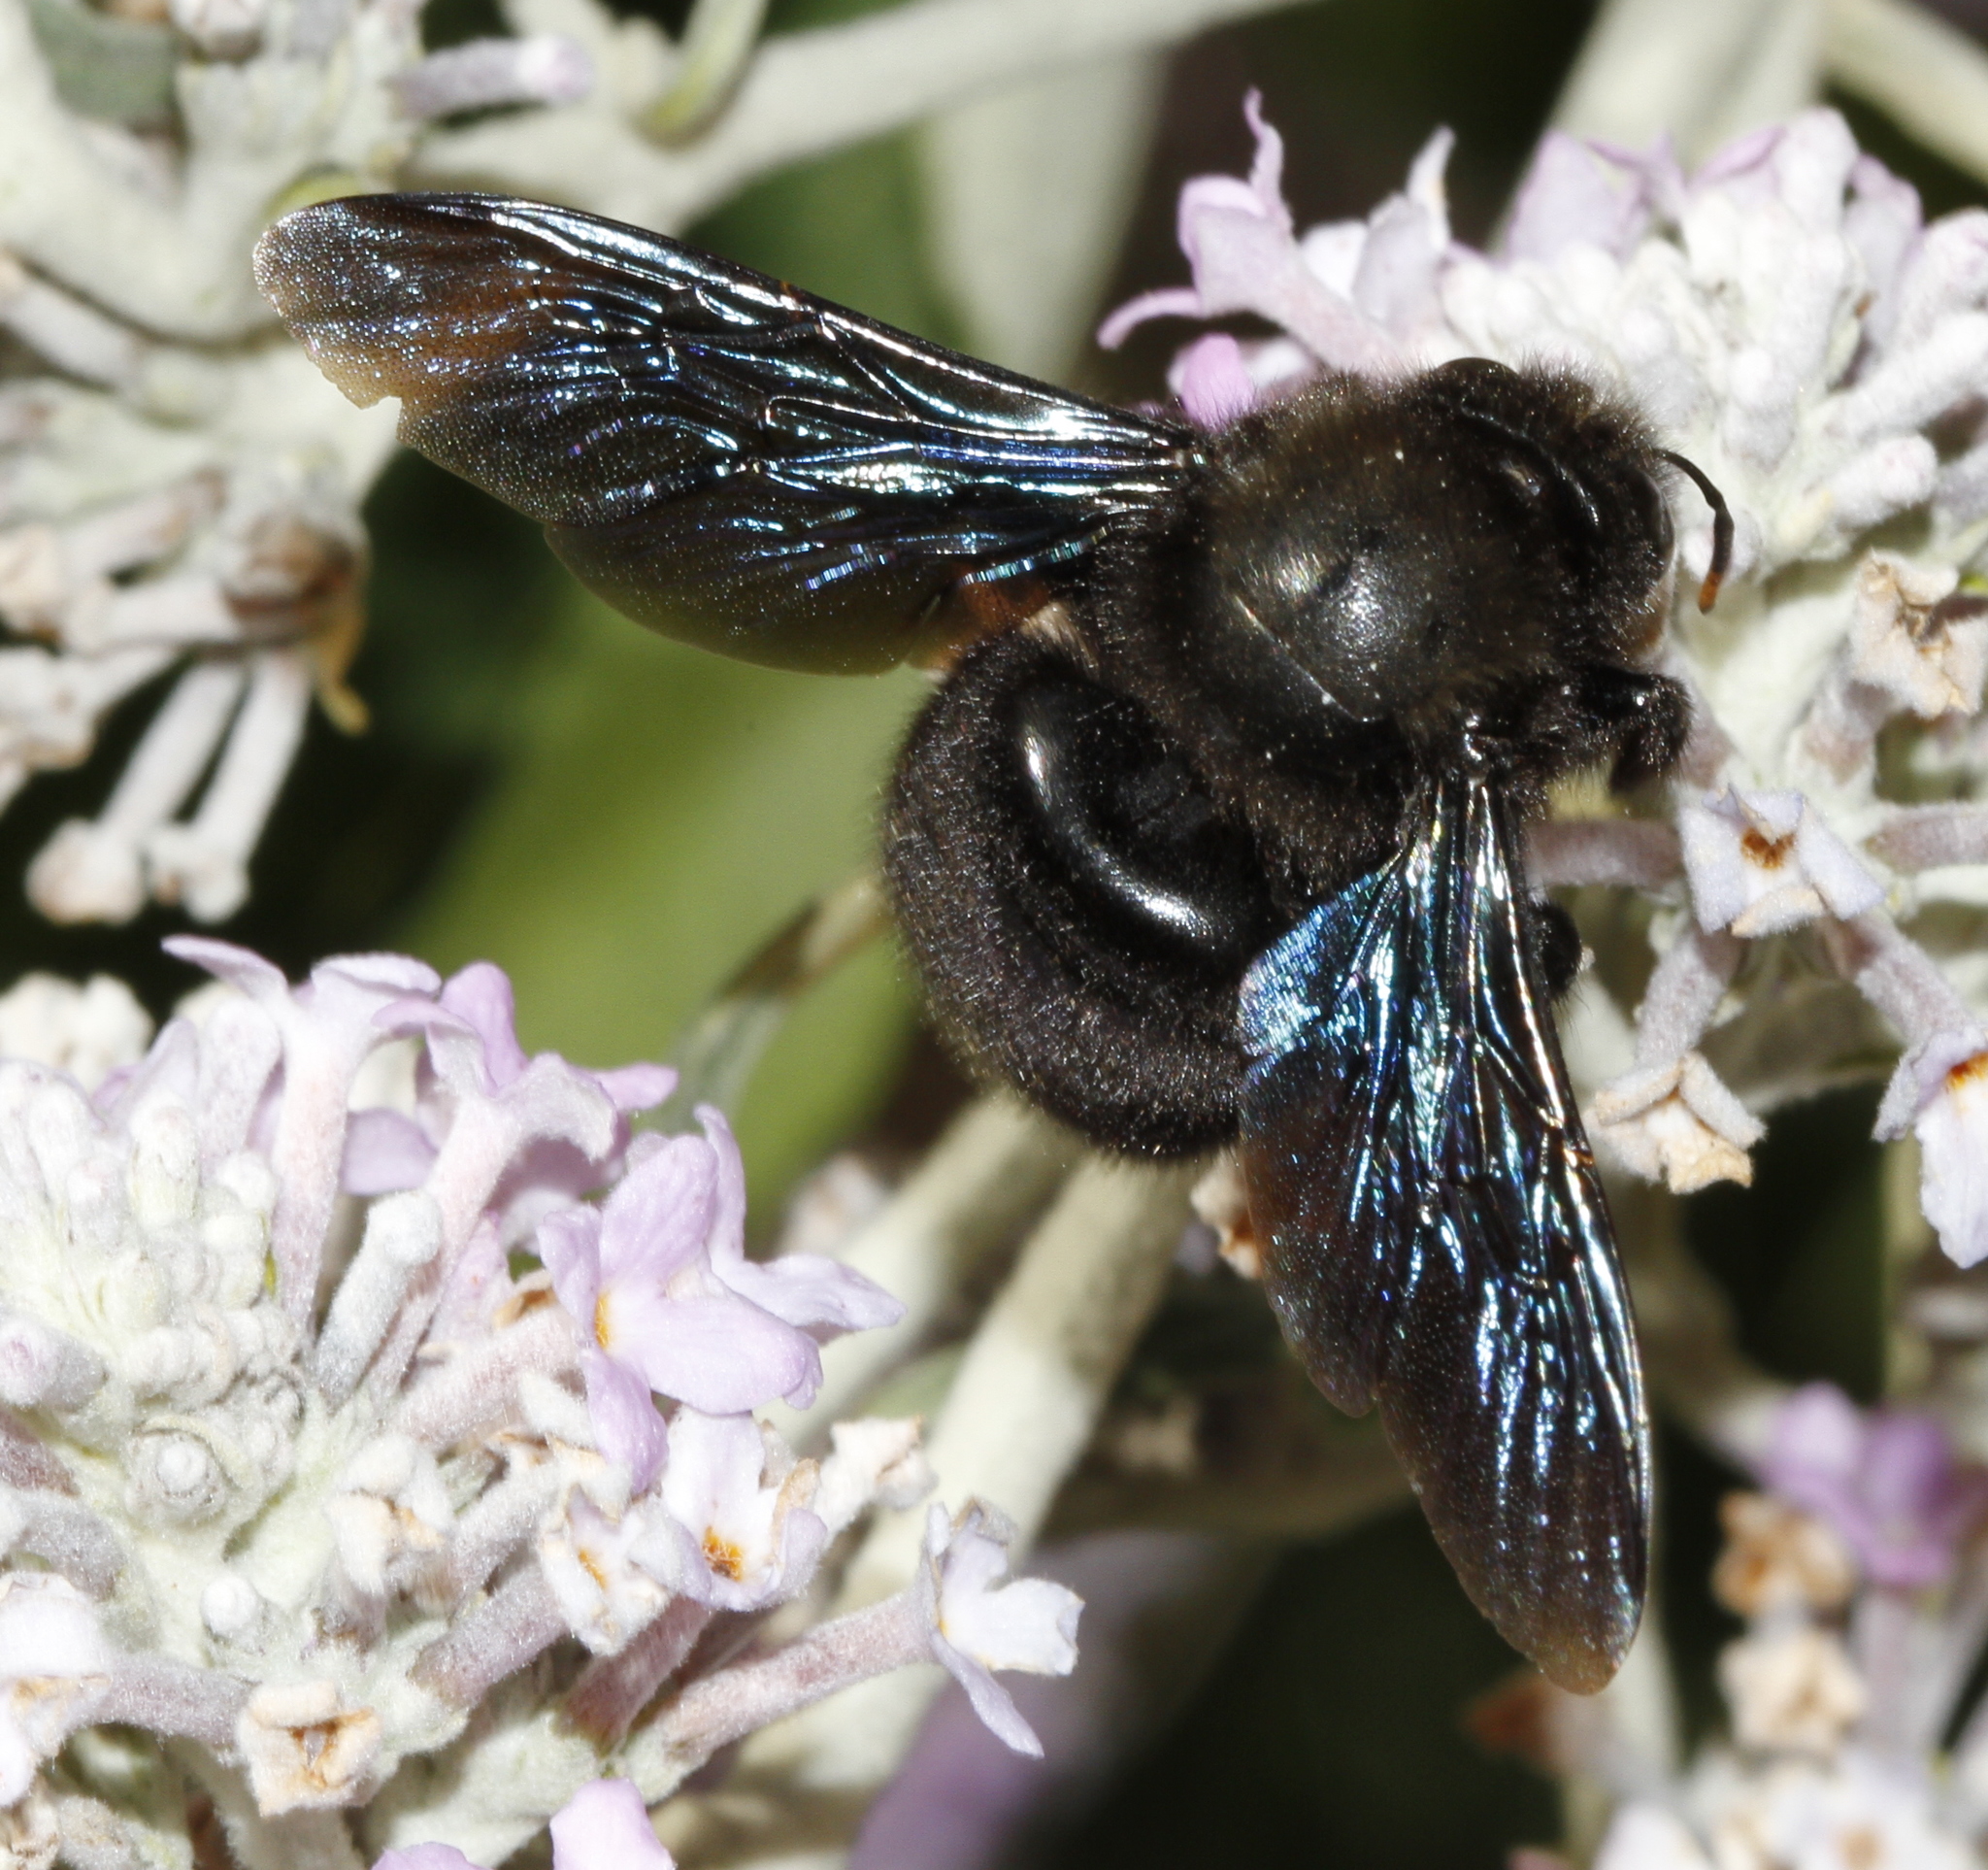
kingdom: Animalia
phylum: Arthropoda
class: Insecta
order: Hymenoptera
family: Apidae
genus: Xylocopa
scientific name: Xylocopa violacea
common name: Violet carpenter bee
